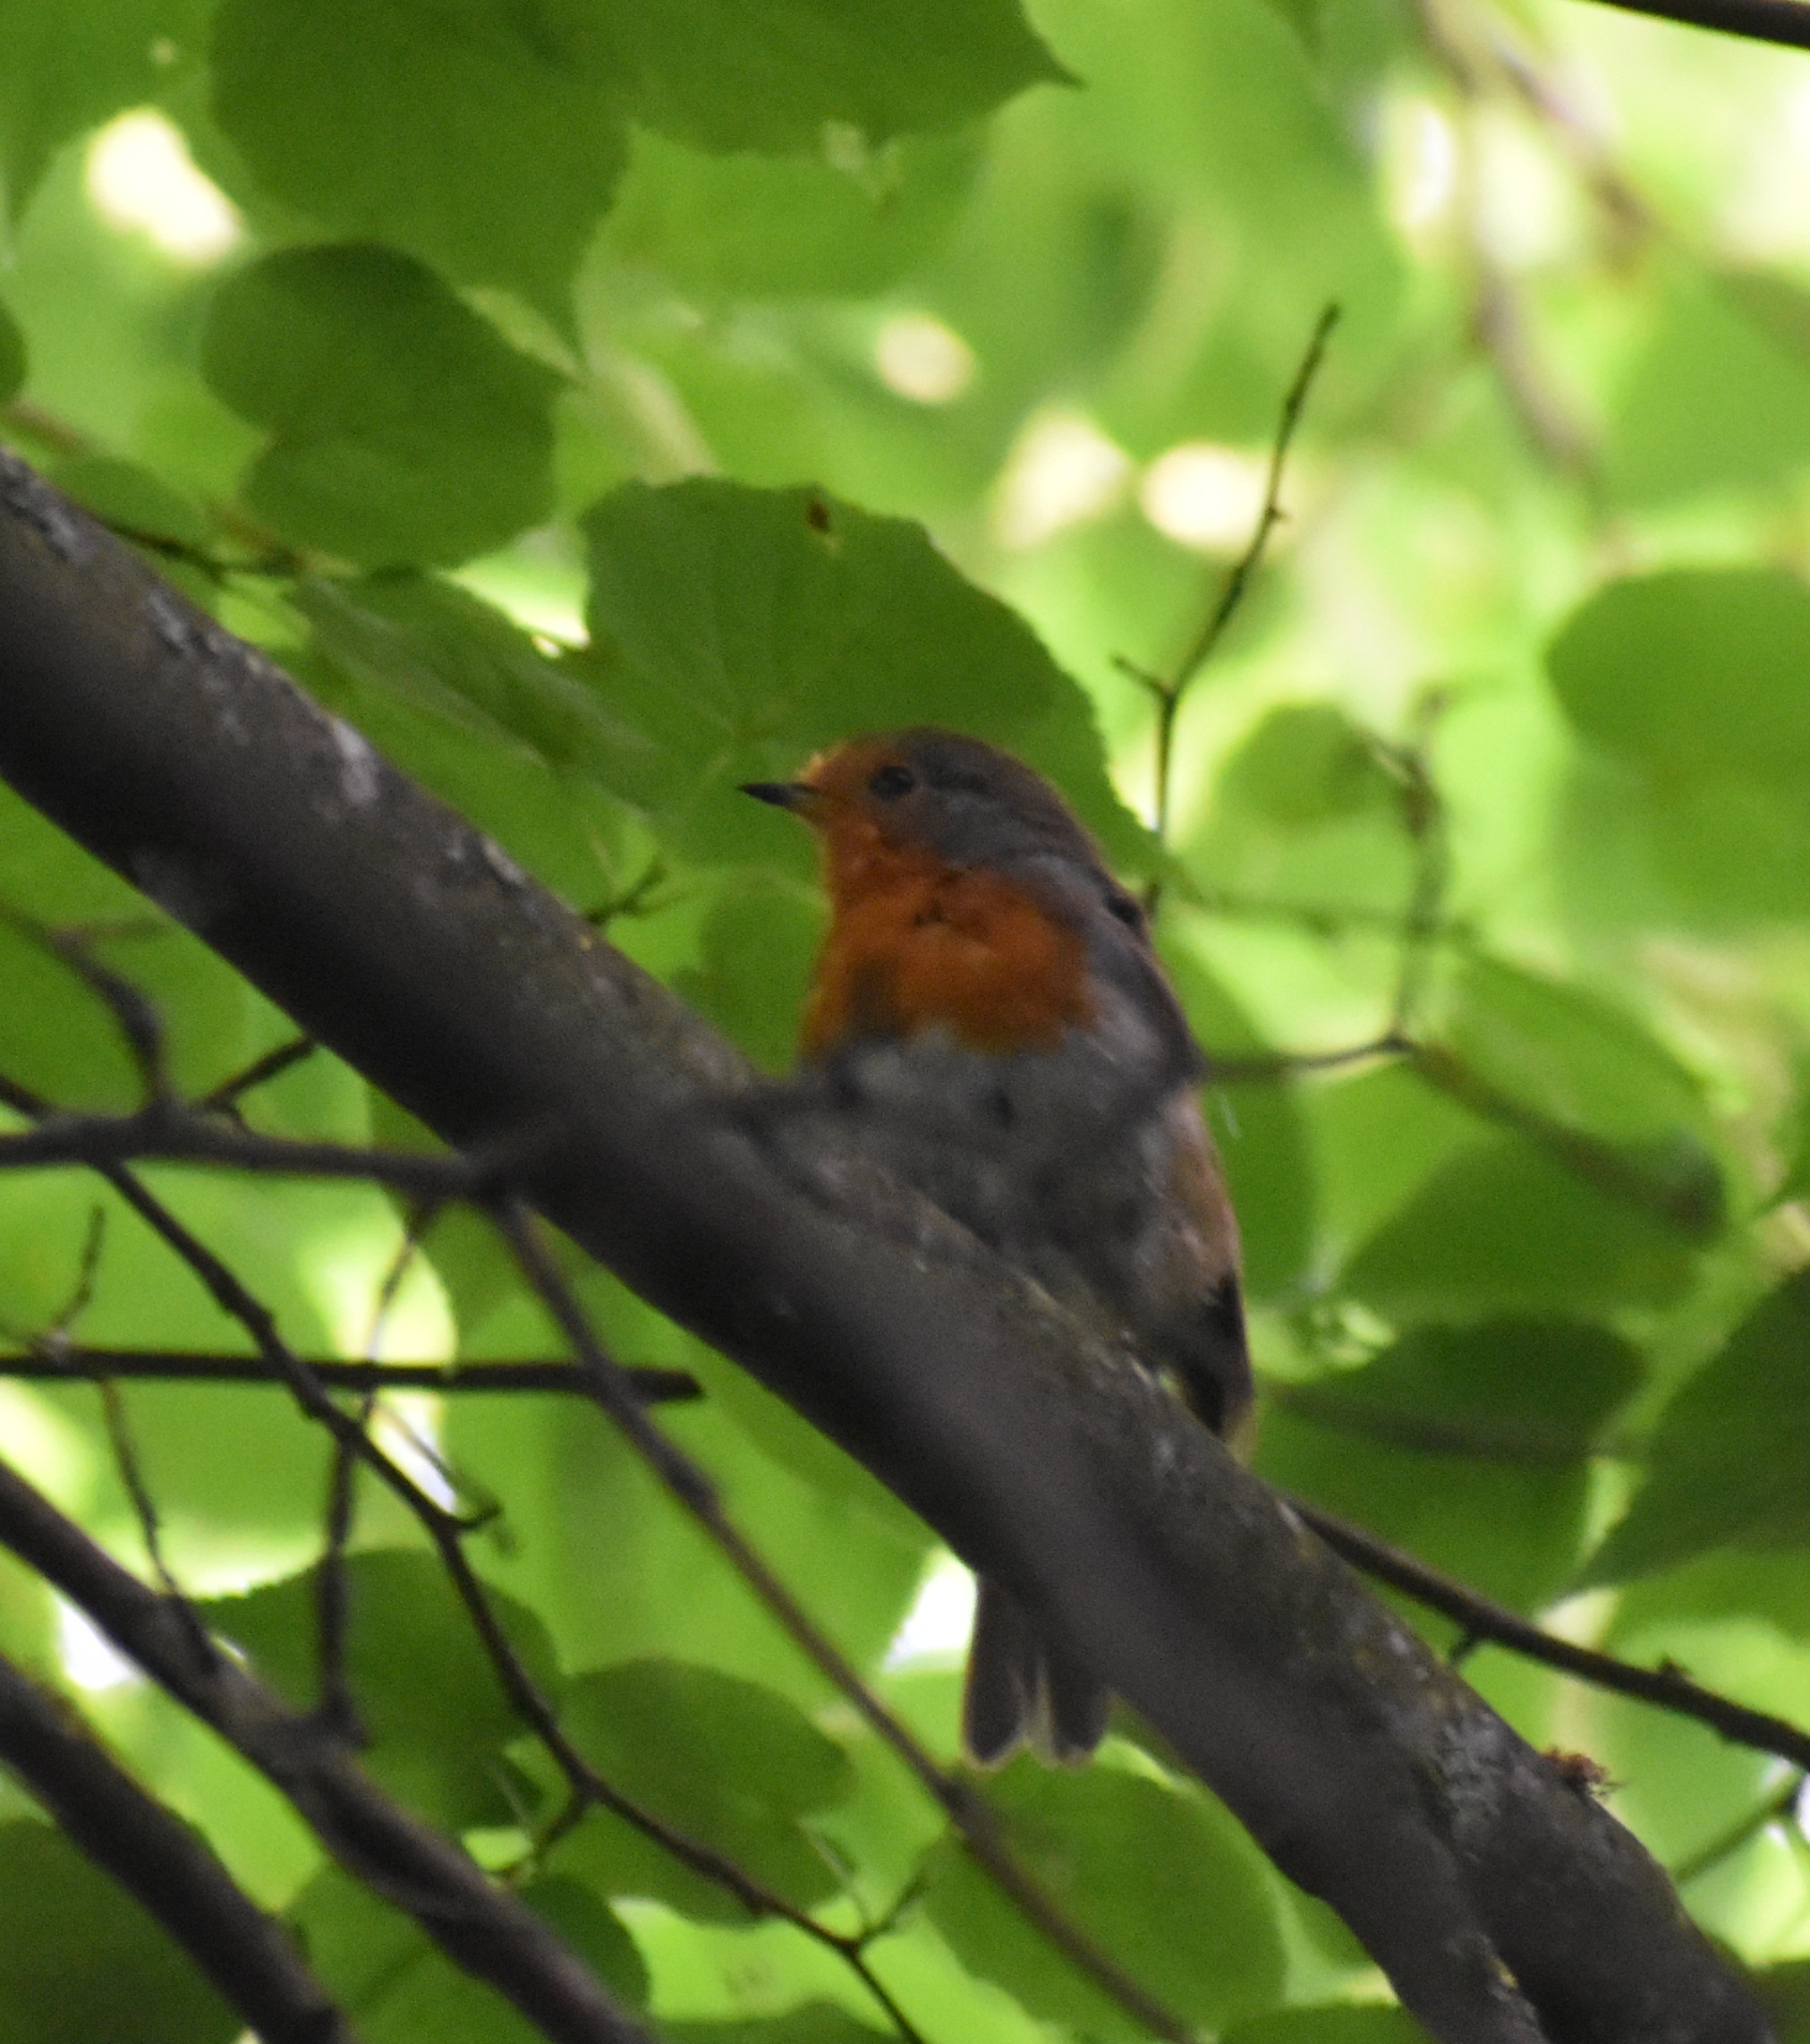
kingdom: Animalia
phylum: Chordata
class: Aves
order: Passeriformes
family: Muscicapidae
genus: Erithacus
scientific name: Erithacus rubecula
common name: European robin
